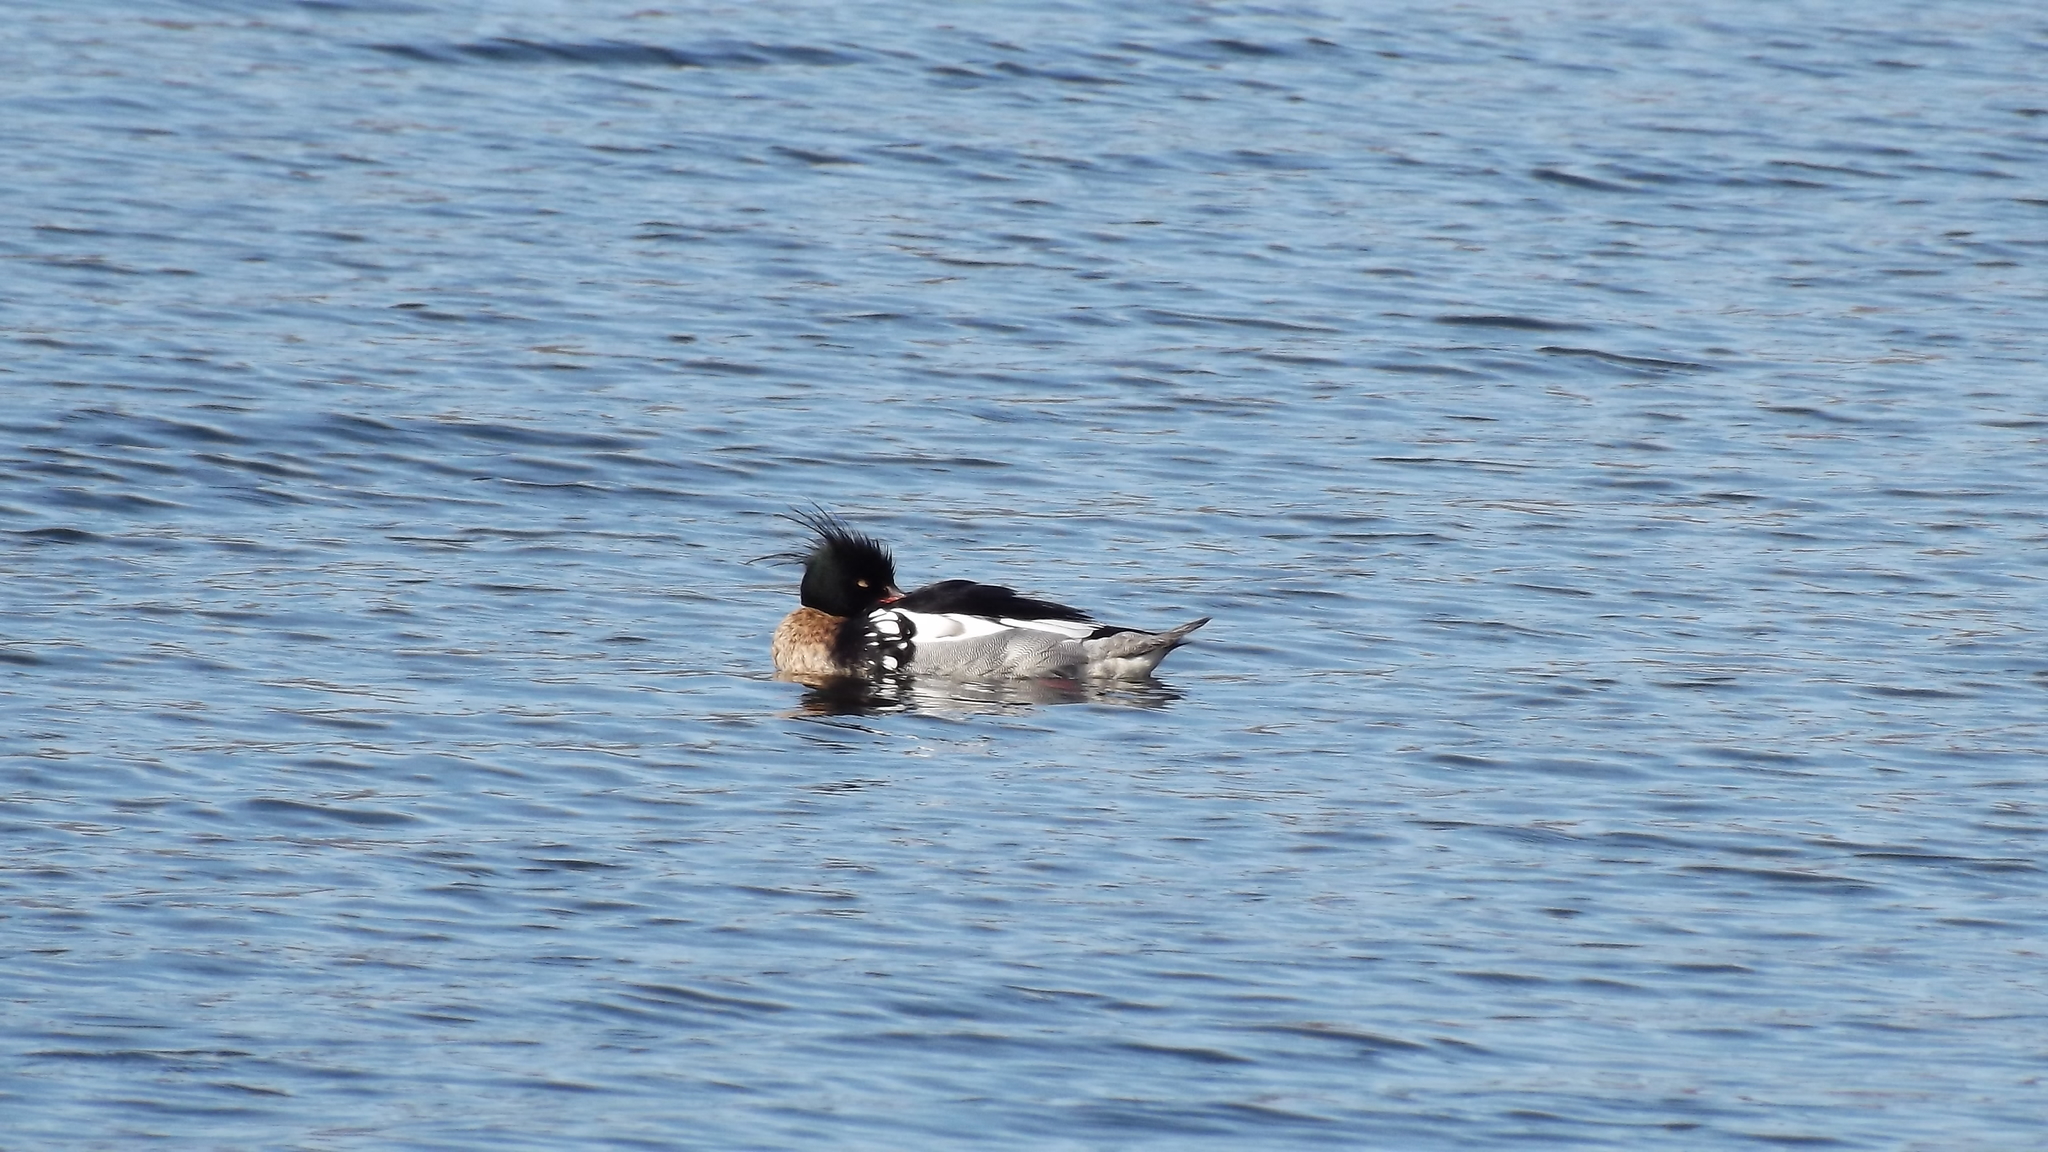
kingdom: Animalia
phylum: Chordata
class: Aves
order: Anseriformes
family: Anatidae
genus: Mergus
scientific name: Mergus serrator
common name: Red-breasted merganser
